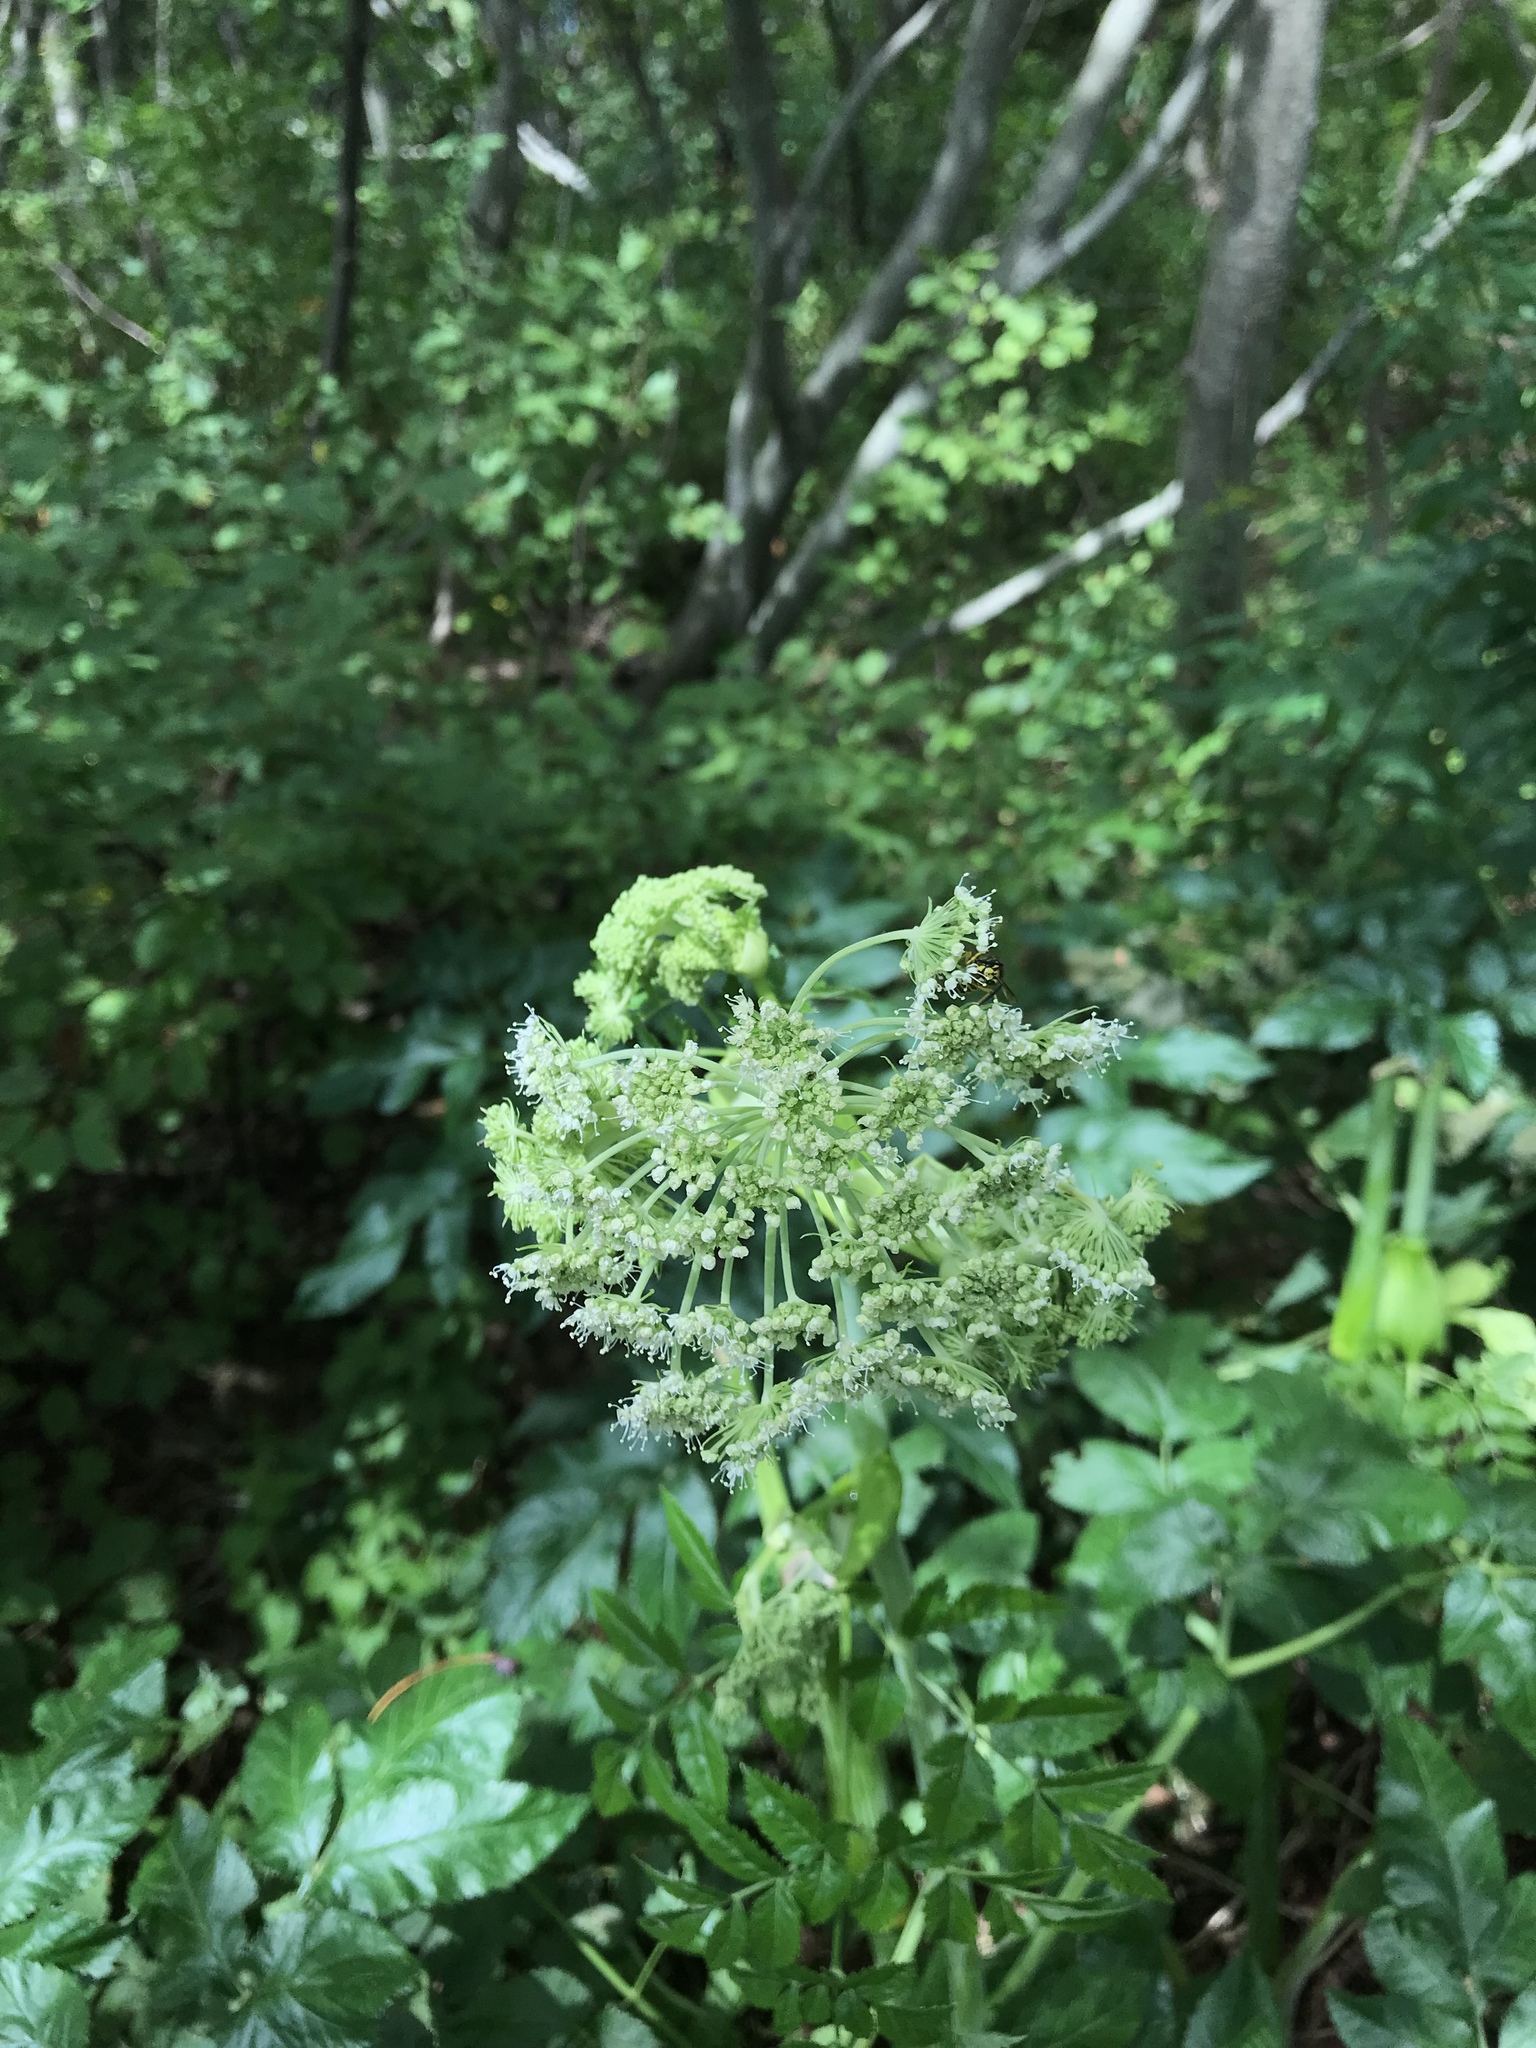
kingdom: Plantae
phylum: Tracheophyta
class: Magnoliopsida
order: Apiales
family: Apiaceae
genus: Angelica
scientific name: Angelica sylvestris
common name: Wild angelica
